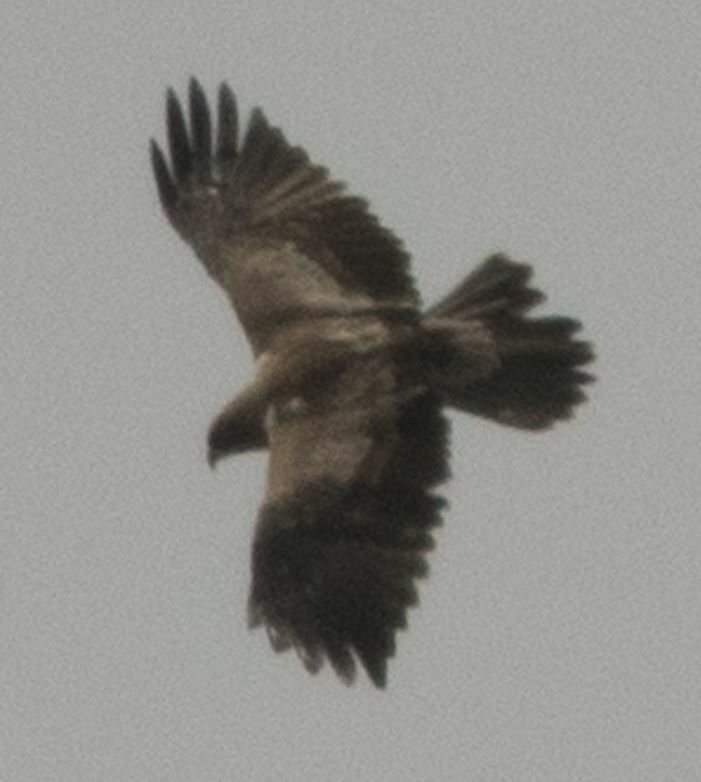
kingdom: Animalia
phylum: Chordata
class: Aves
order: Accipitriformes
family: Accipitridae
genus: Hieraaetus
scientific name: Hieraaetus pennatus
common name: Booted eagle
